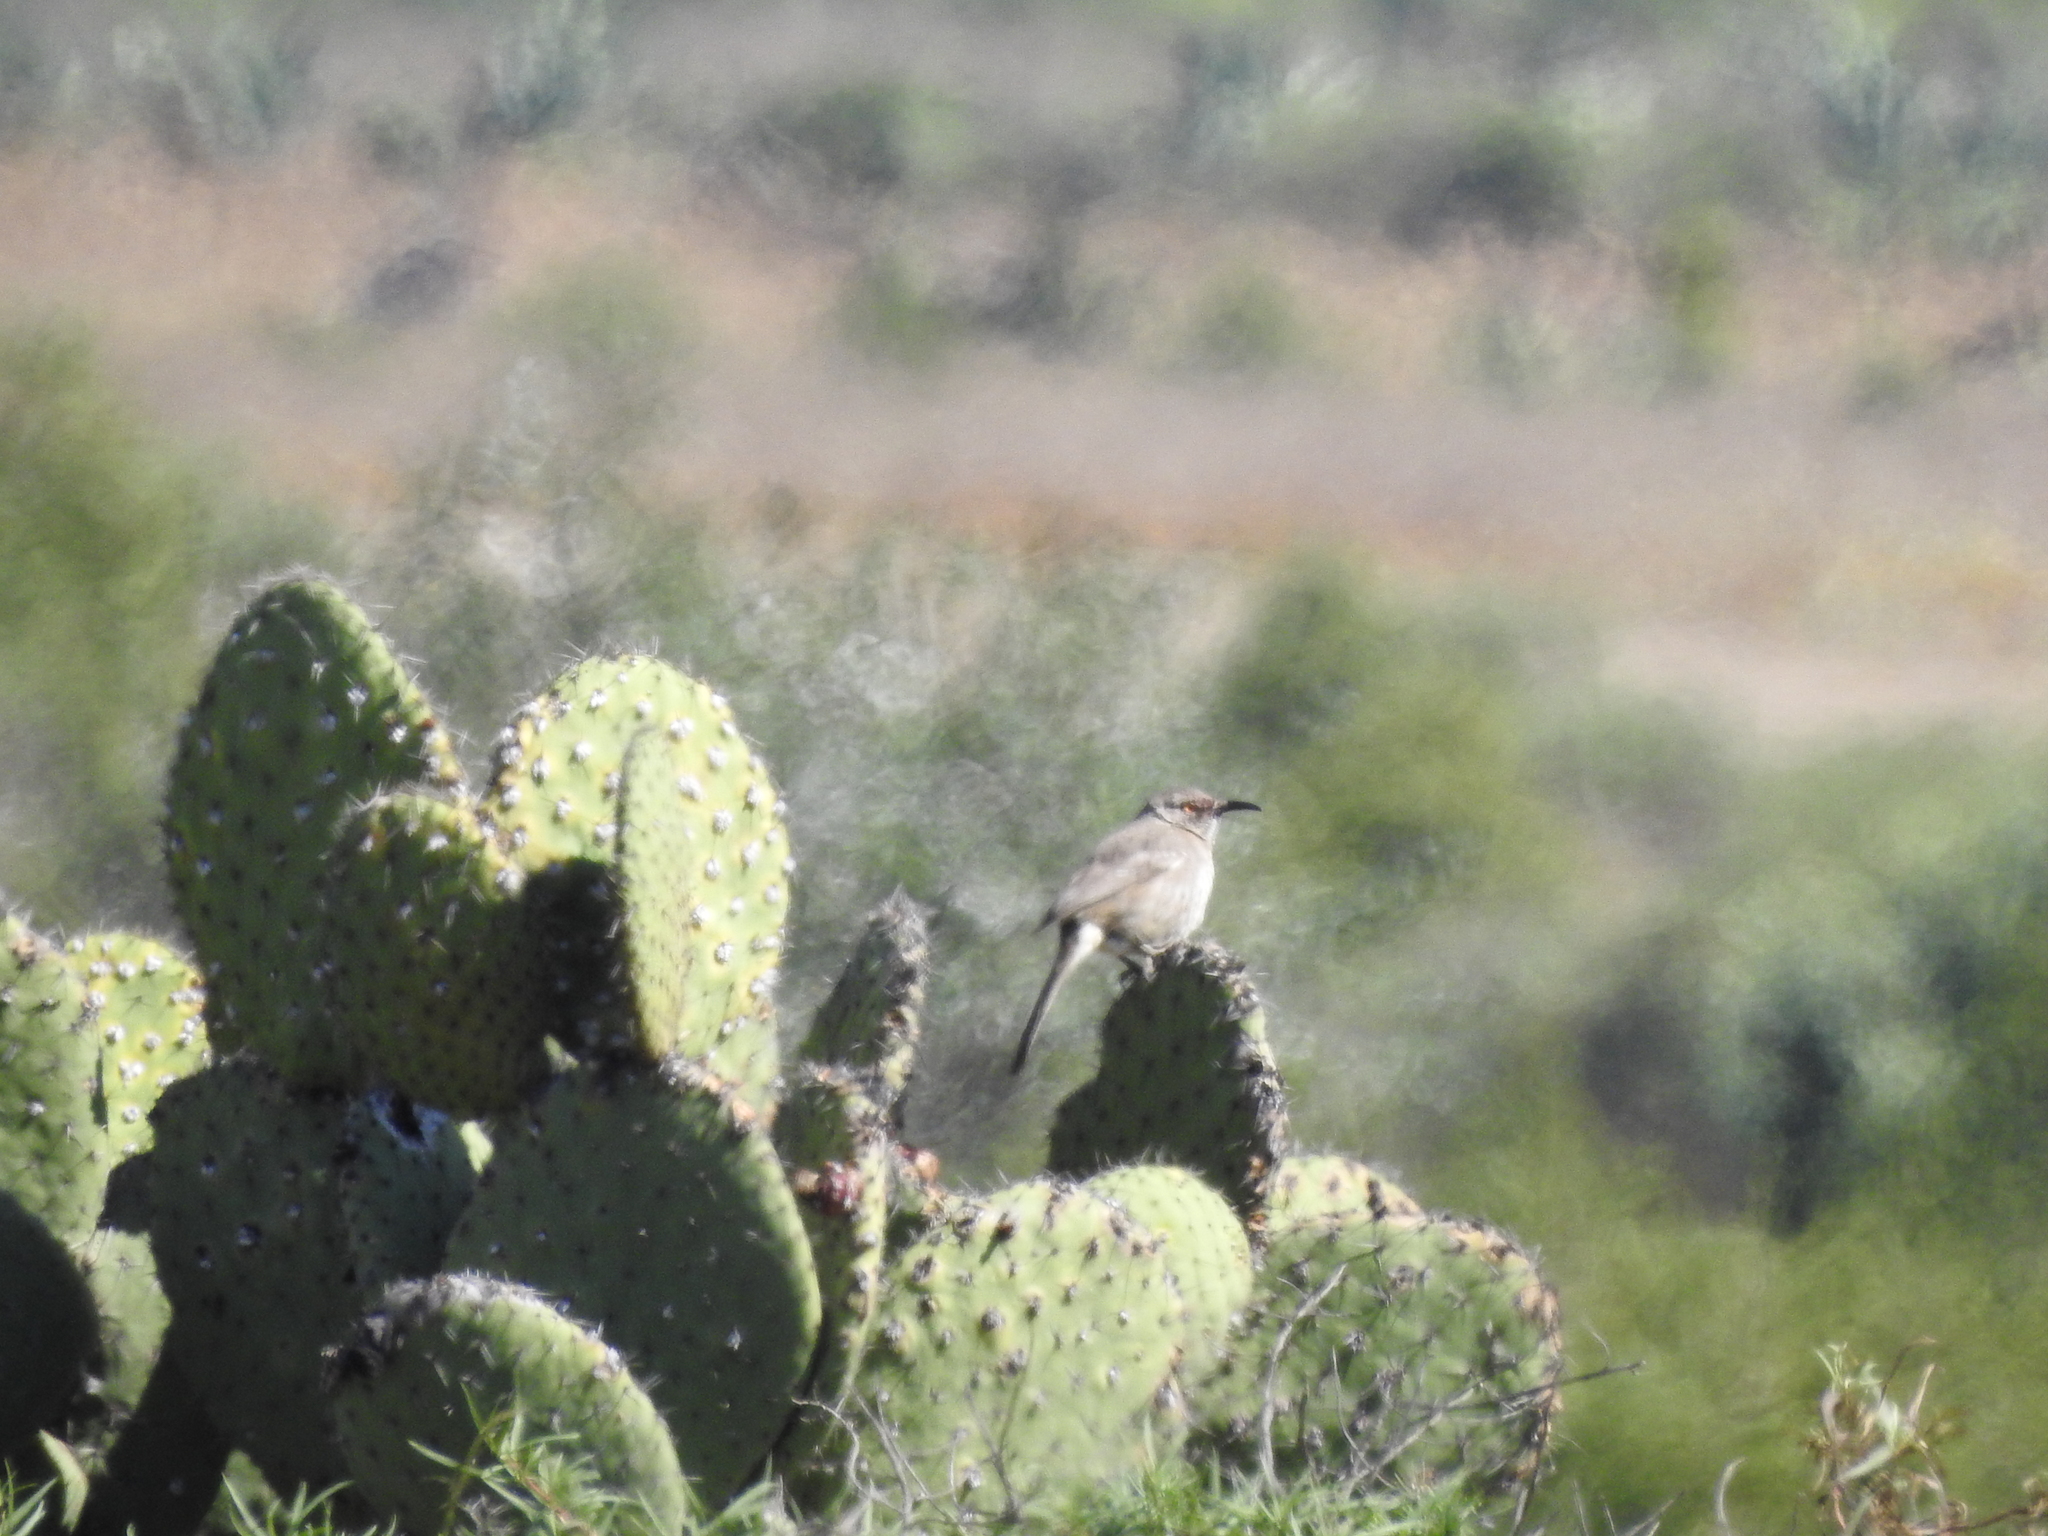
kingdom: Animalia
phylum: Chordata
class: Aves
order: Passeriformes
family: Mimidae
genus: Toxostoma
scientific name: Toxostoma curvirostre
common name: Curve-billed thrasher
